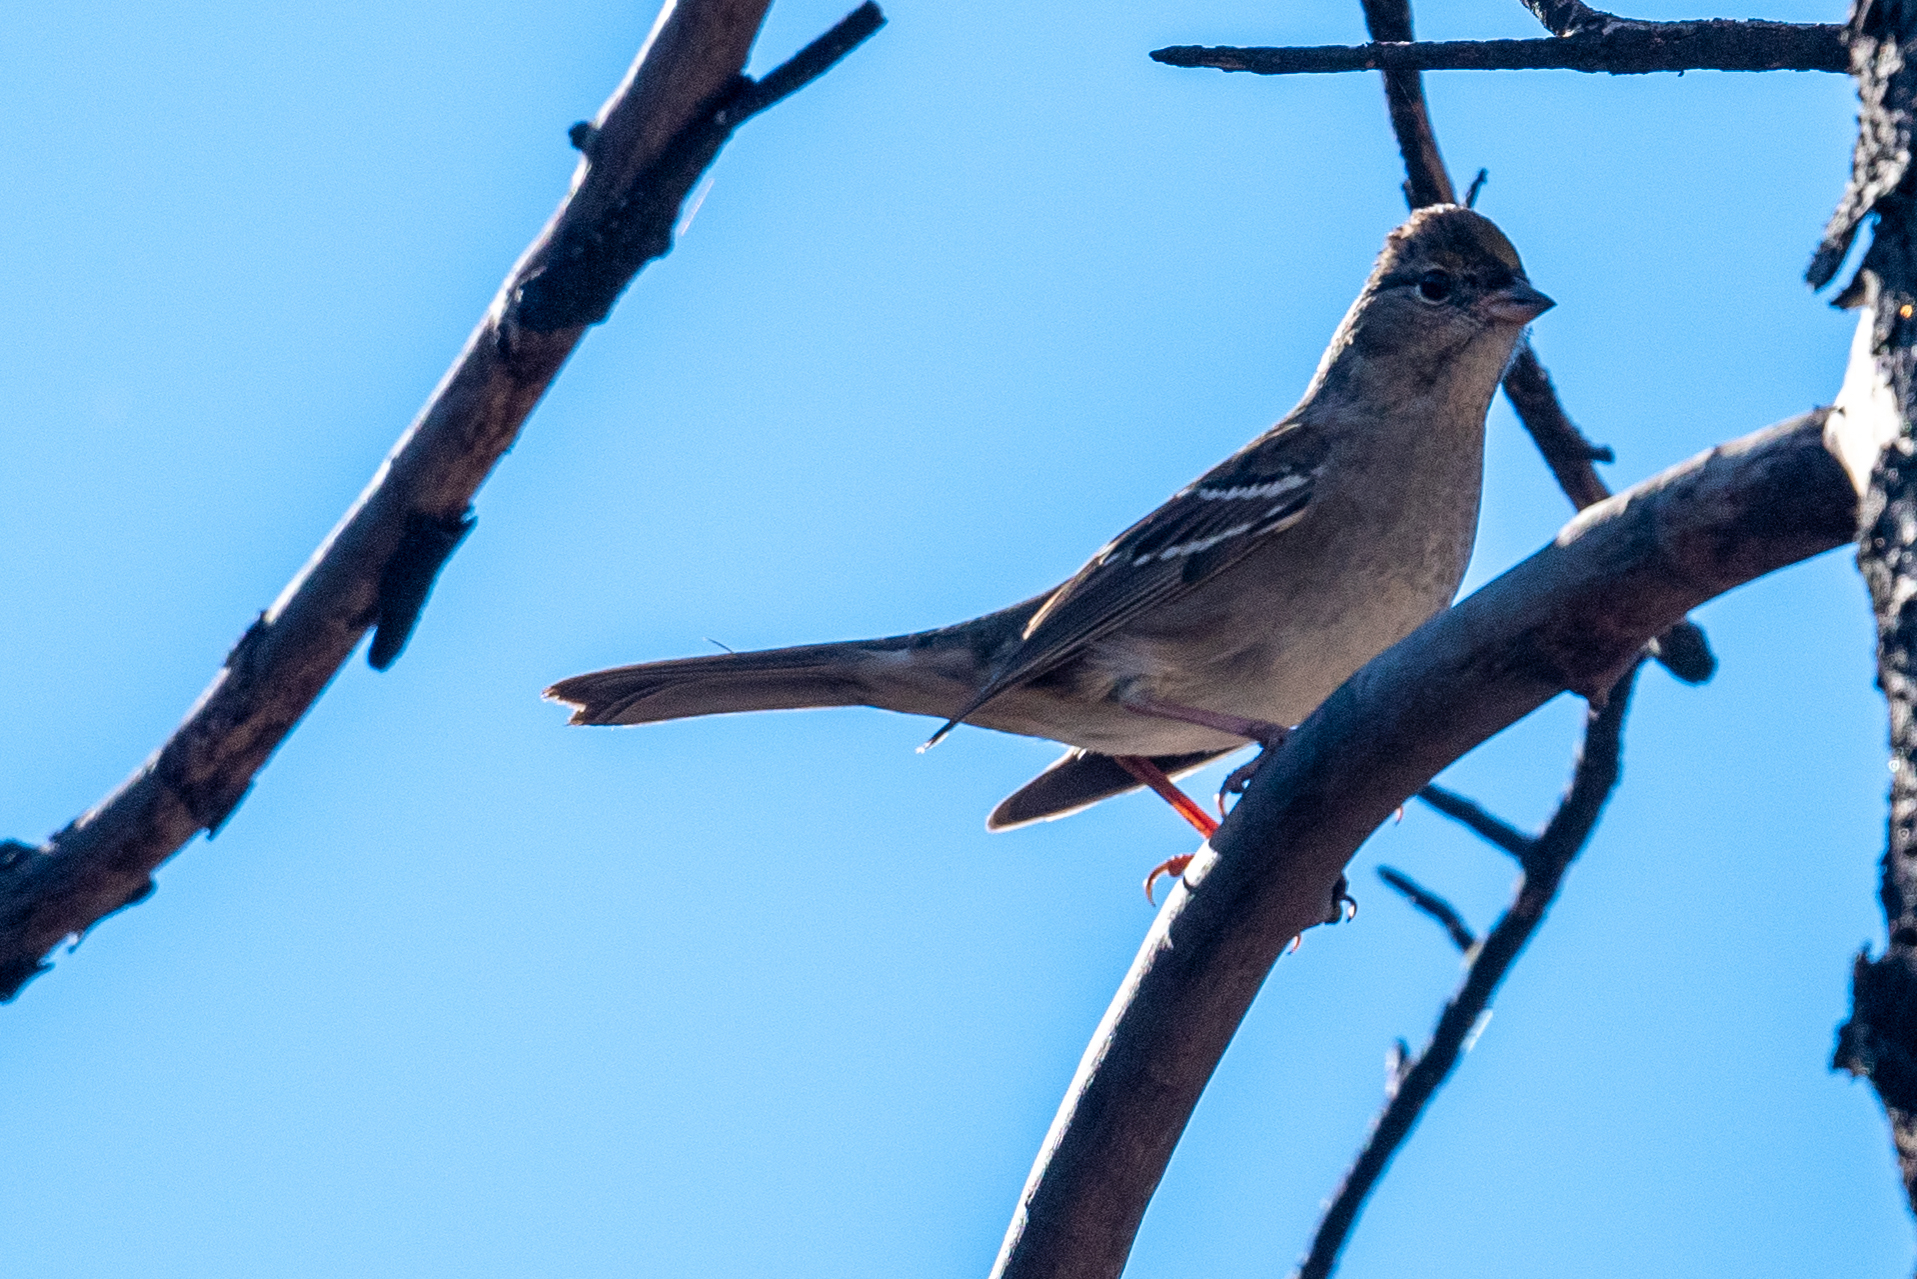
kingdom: Animalia
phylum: Chordata
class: Aves
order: Passeriformes
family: Passerellidae
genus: Zonotrichia
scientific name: Zonotrichia atricapilla
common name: Golden-crowned sparrow
